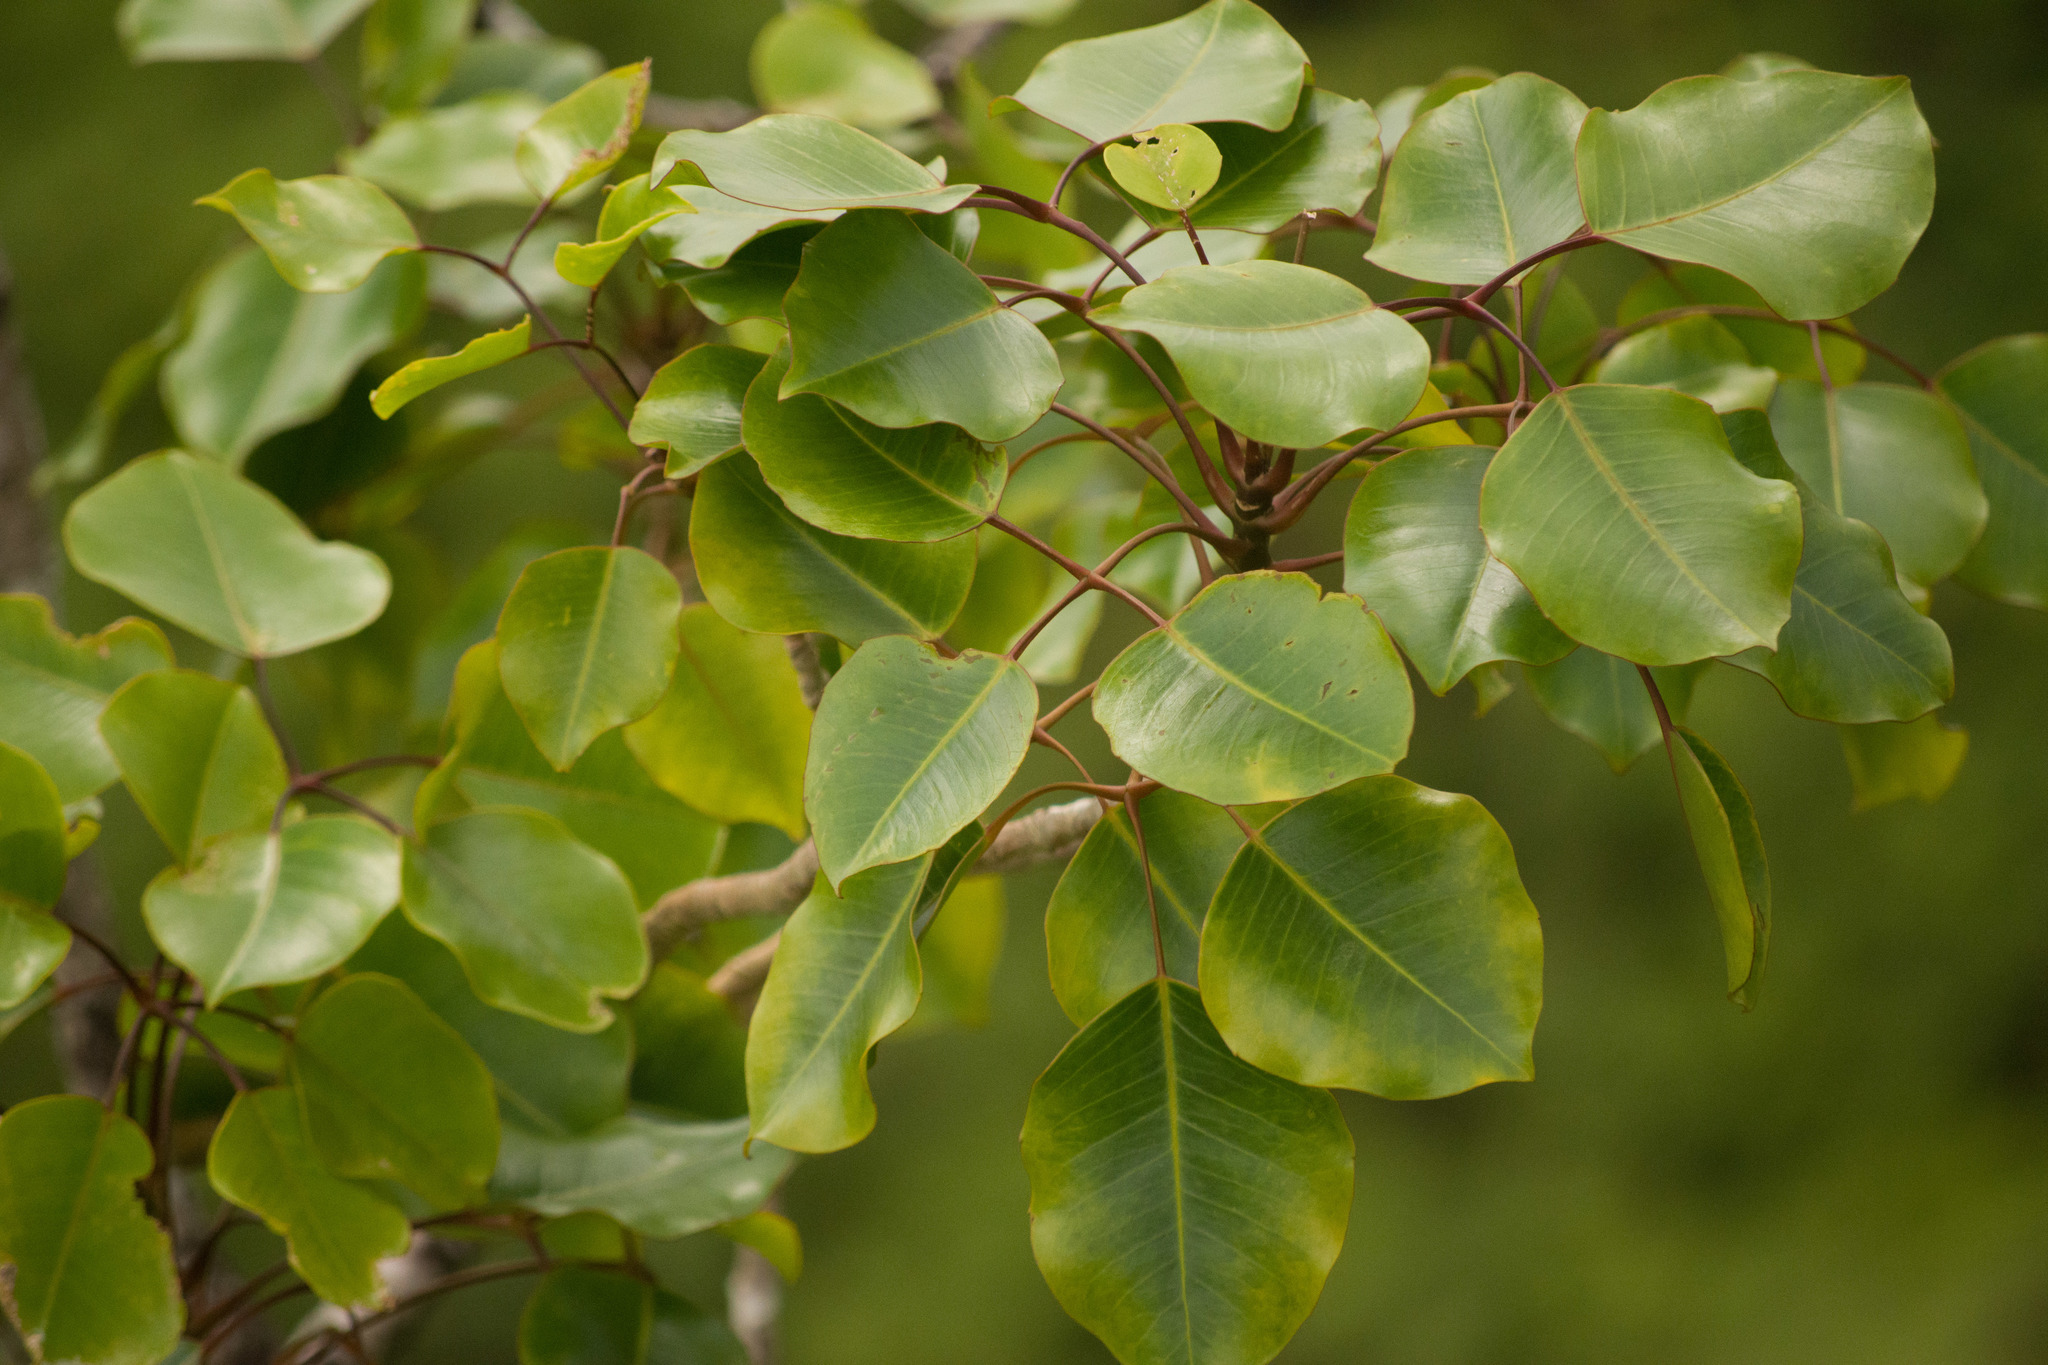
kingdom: Plantae
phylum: Tracheophyta
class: Magnoliopsida
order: Apiales
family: Araliaceae
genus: Cheirodendron
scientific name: Cheirodendron trigynum
